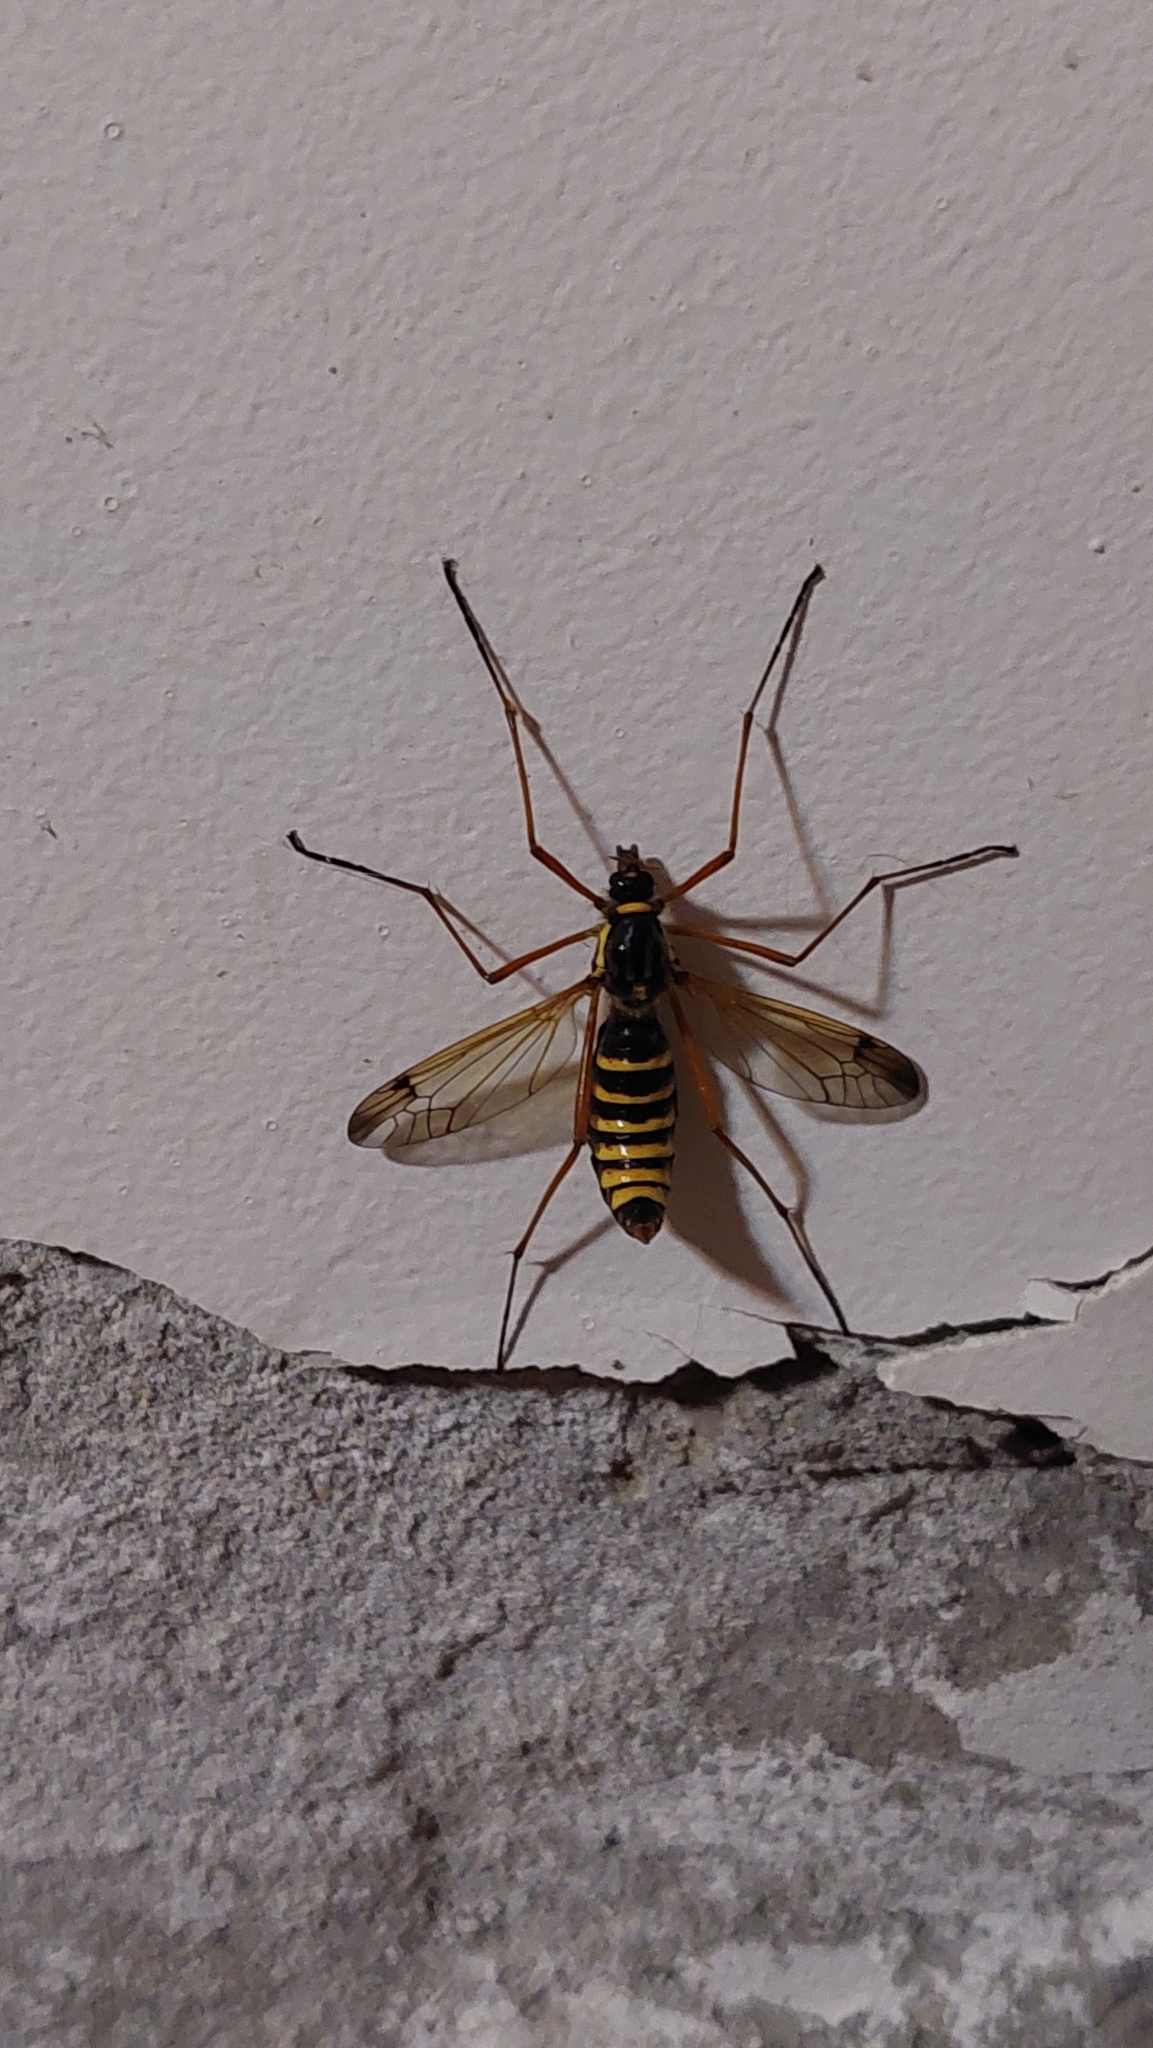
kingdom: Animalia
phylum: Arthropoda
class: Insecta
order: Diptera
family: Tipulidae
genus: Ctenophora
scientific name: Ctenophora flaveolata
